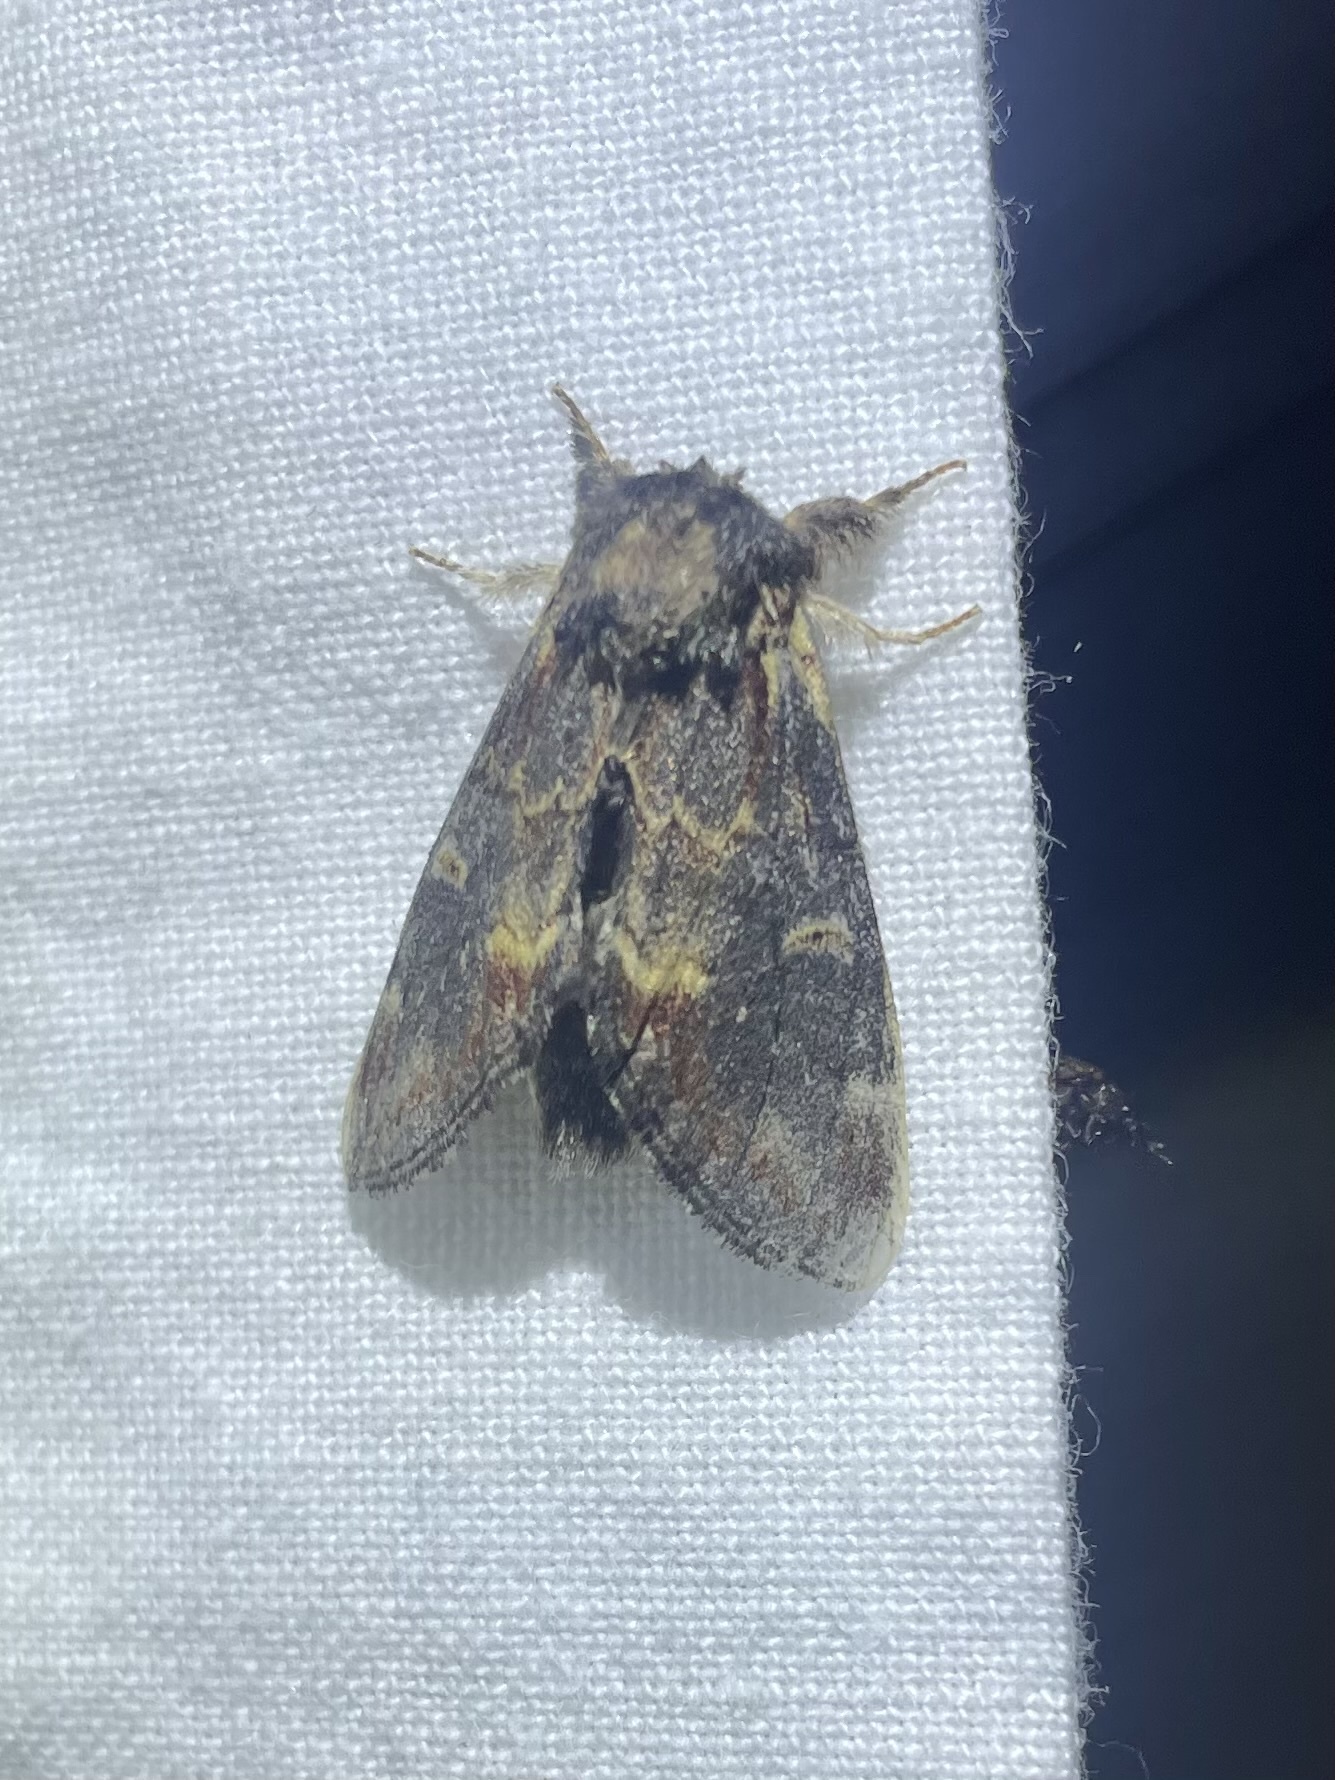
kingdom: Animalia
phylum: Arthropoda
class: Insecta
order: Lepidoptera
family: Notodontidae
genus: Notodonta
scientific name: Notodonta dromedarius
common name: Iron prominent
